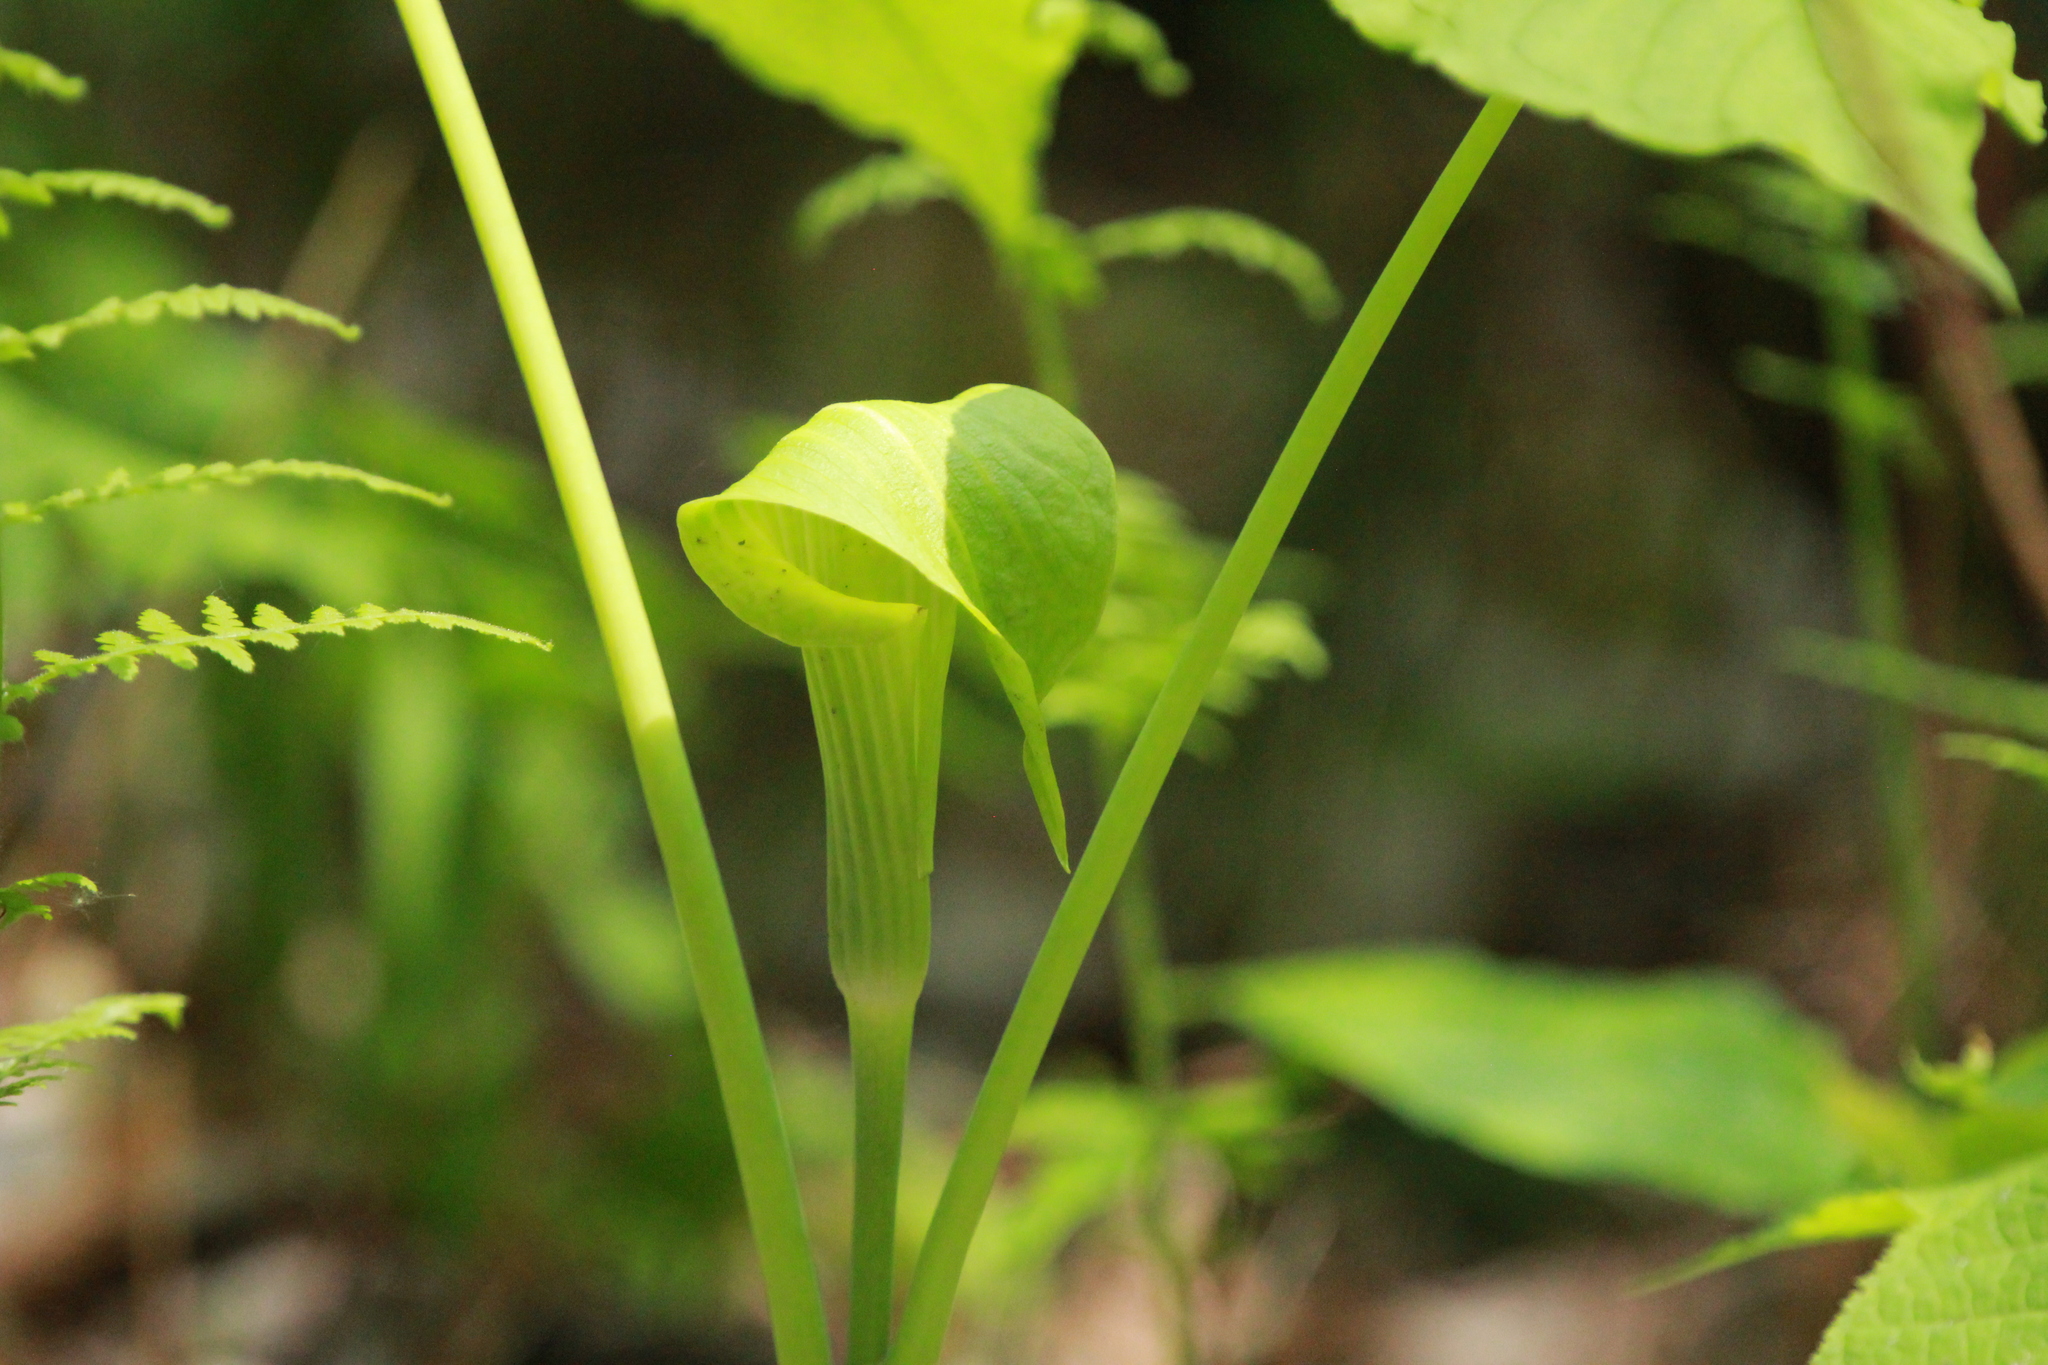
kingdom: Plantae
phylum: Tracheophyta
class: Liliopsida
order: Alismatales
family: Araceae
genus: Arisaema
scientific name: Arisaema triphyllum
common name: Jack-in-the-pulpit
